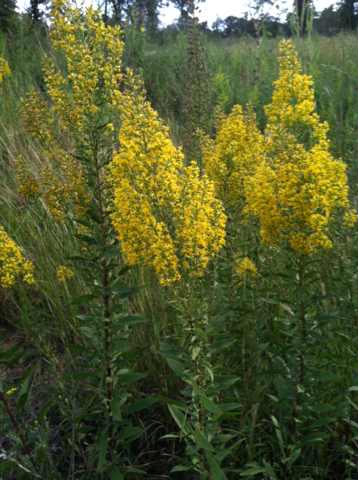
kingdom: Plantae
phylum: Tracheophyta
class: Magnoliopsida
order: Asterales
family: Asteraceae
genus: Solidago
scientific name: Solidago rigidiuscula
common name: Stiff-leaved showy goldenrod
